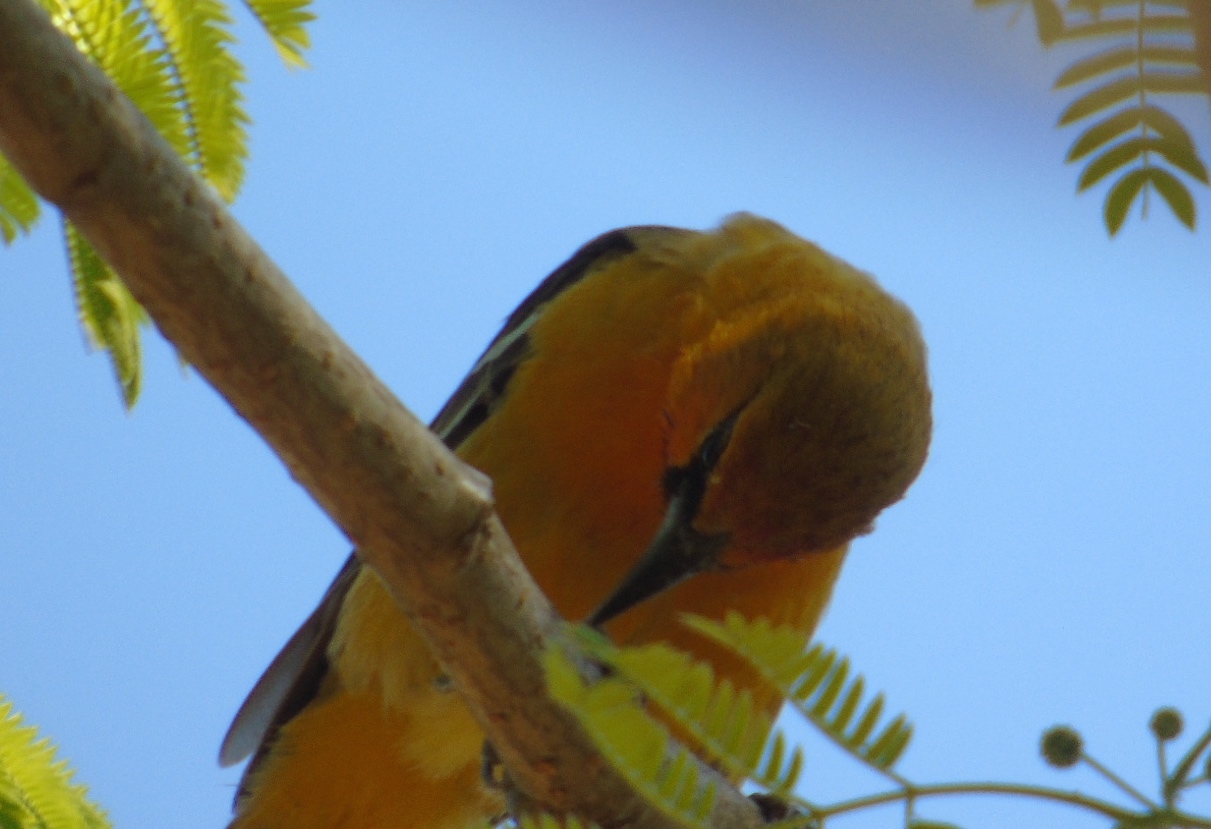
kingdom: Animalia
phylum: Chordata
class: Aves
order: Passeriformes
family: Icteridae
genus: Icterus
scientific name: Icterus pustulatus
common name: Streak-backed oriole
